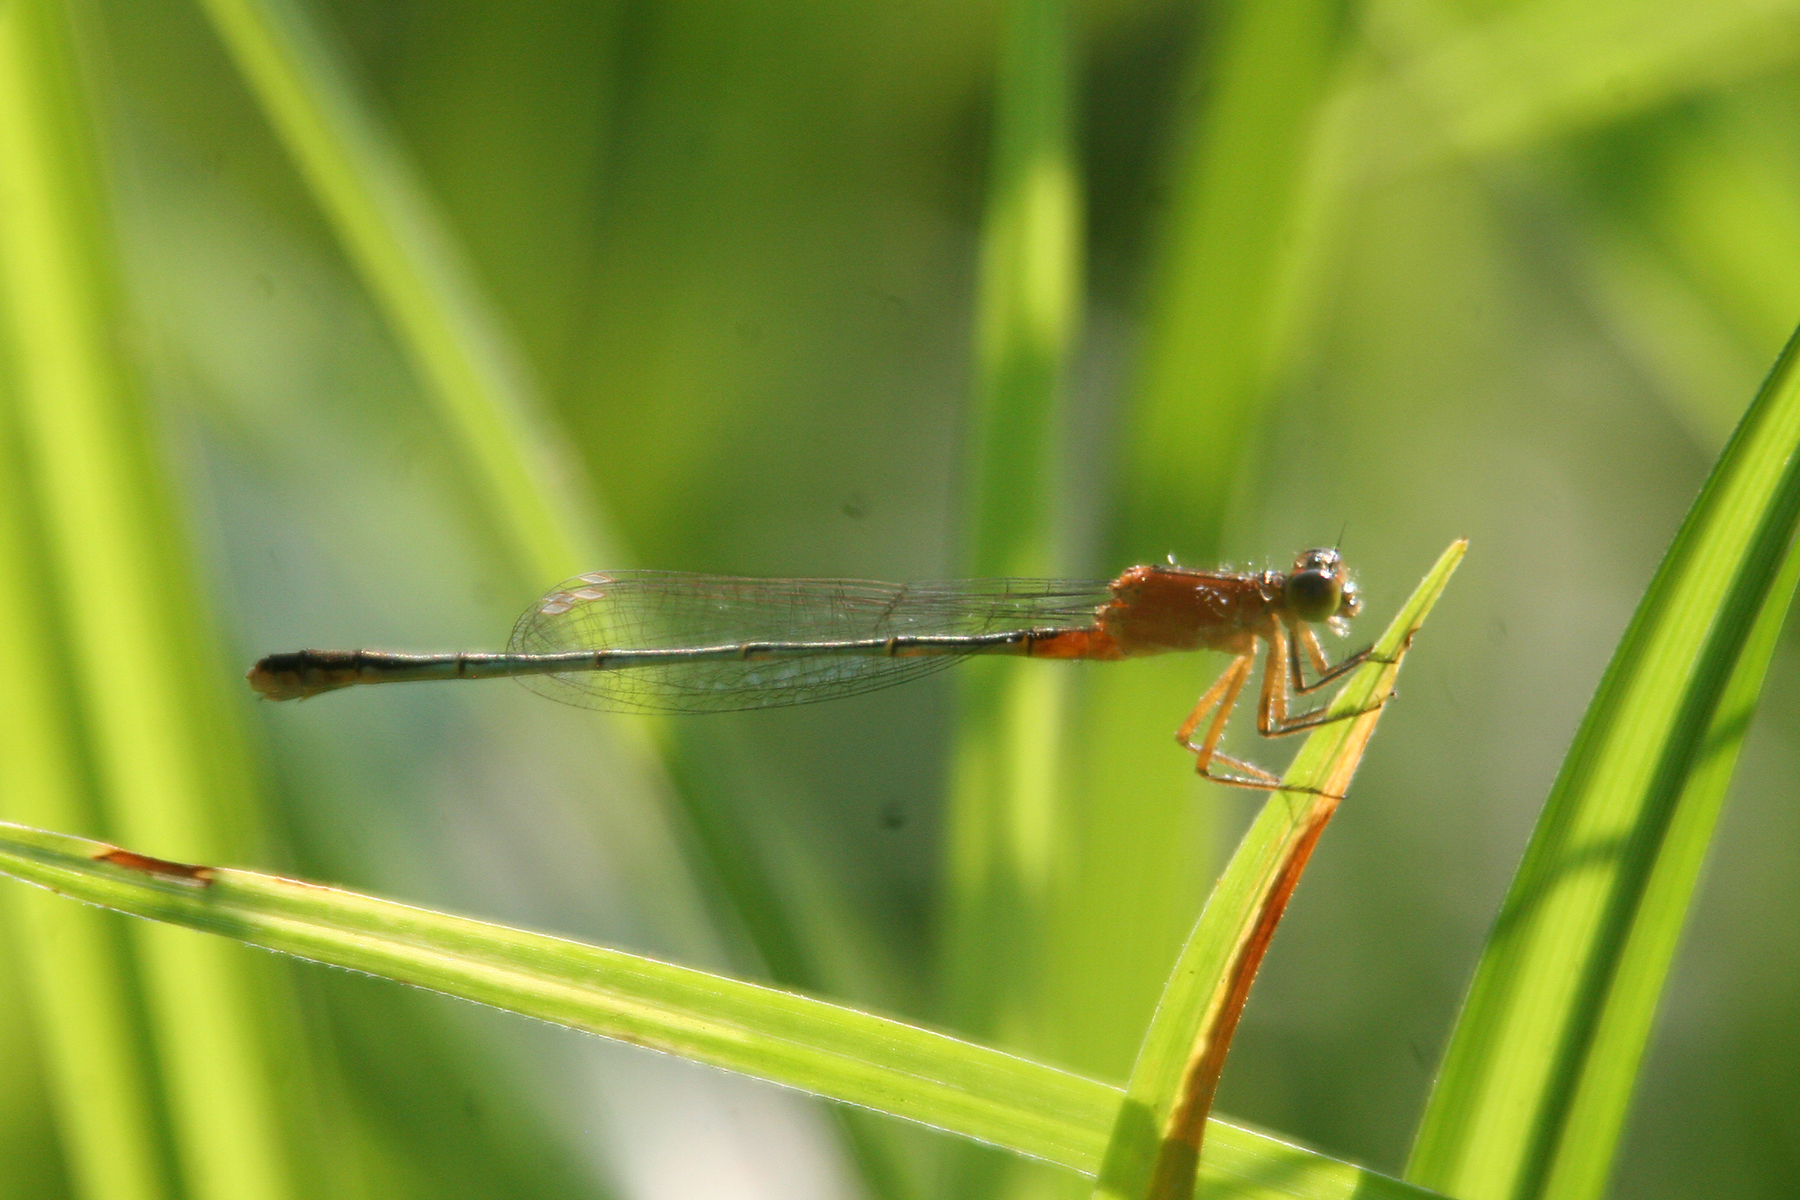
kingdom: Animalia
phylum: Arthropoda
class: Insecta
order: Odonata
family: Coenagrionidae
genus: Ischnura
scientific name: Ischnura ramburii
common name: Rambur's forktail
